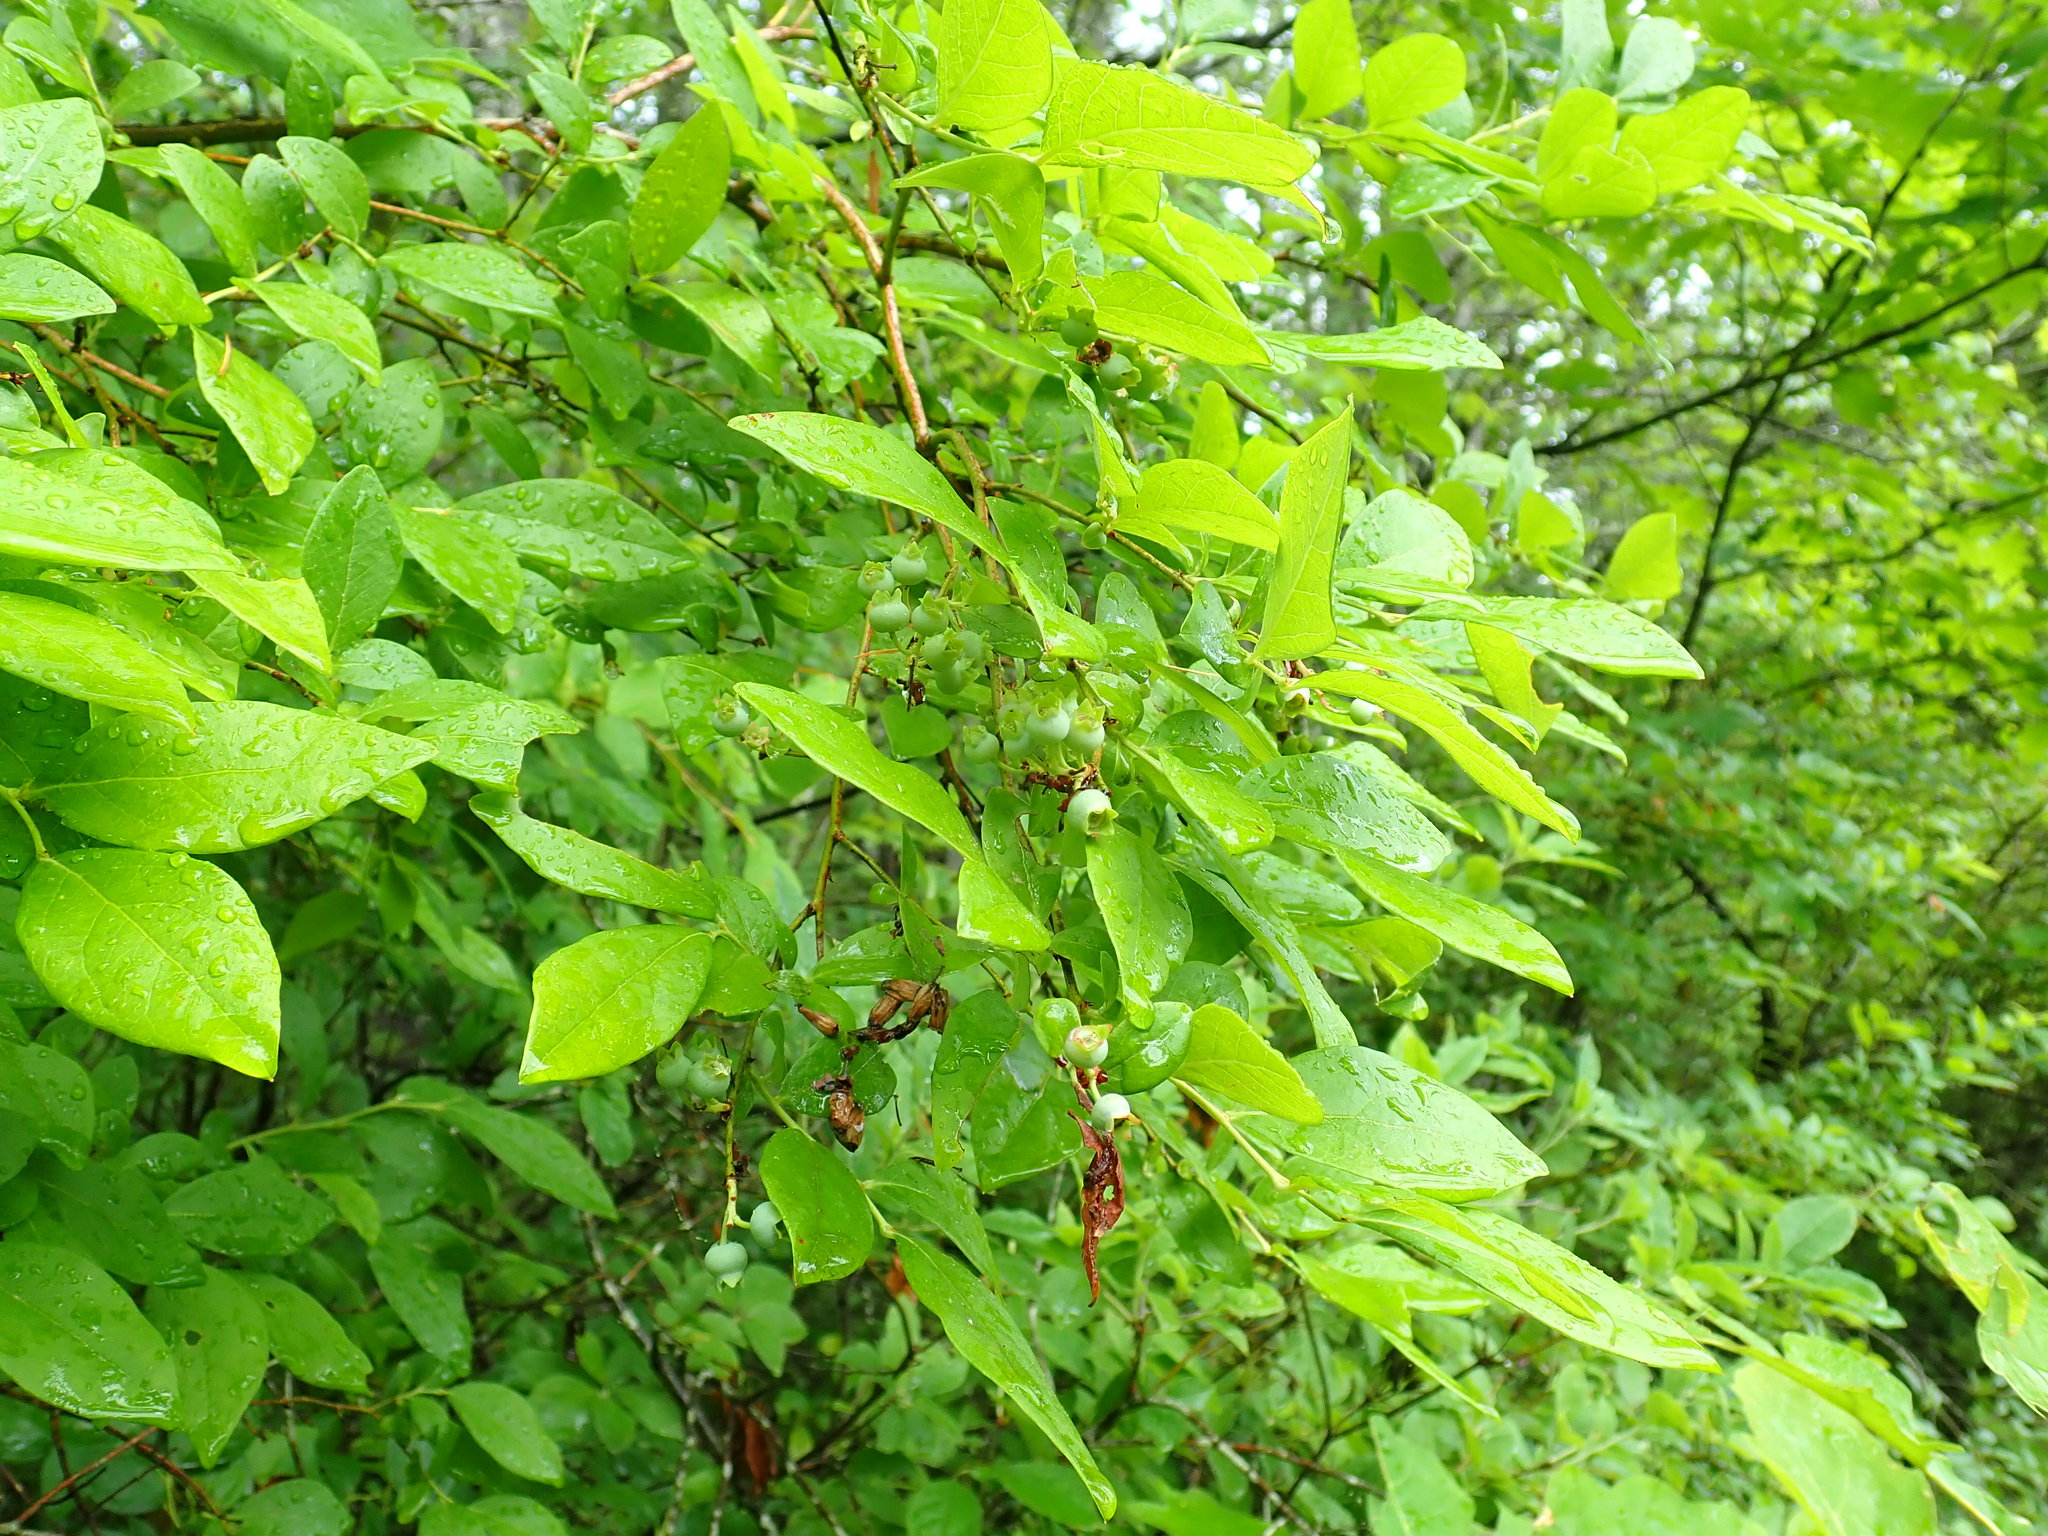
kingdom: Plantae
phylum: Tracheophyta
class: Magnoliopsida
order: Ericales
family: Ericaceae
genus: Vaccinium
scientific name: Vaccinium corymbosum
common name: Blueberry
